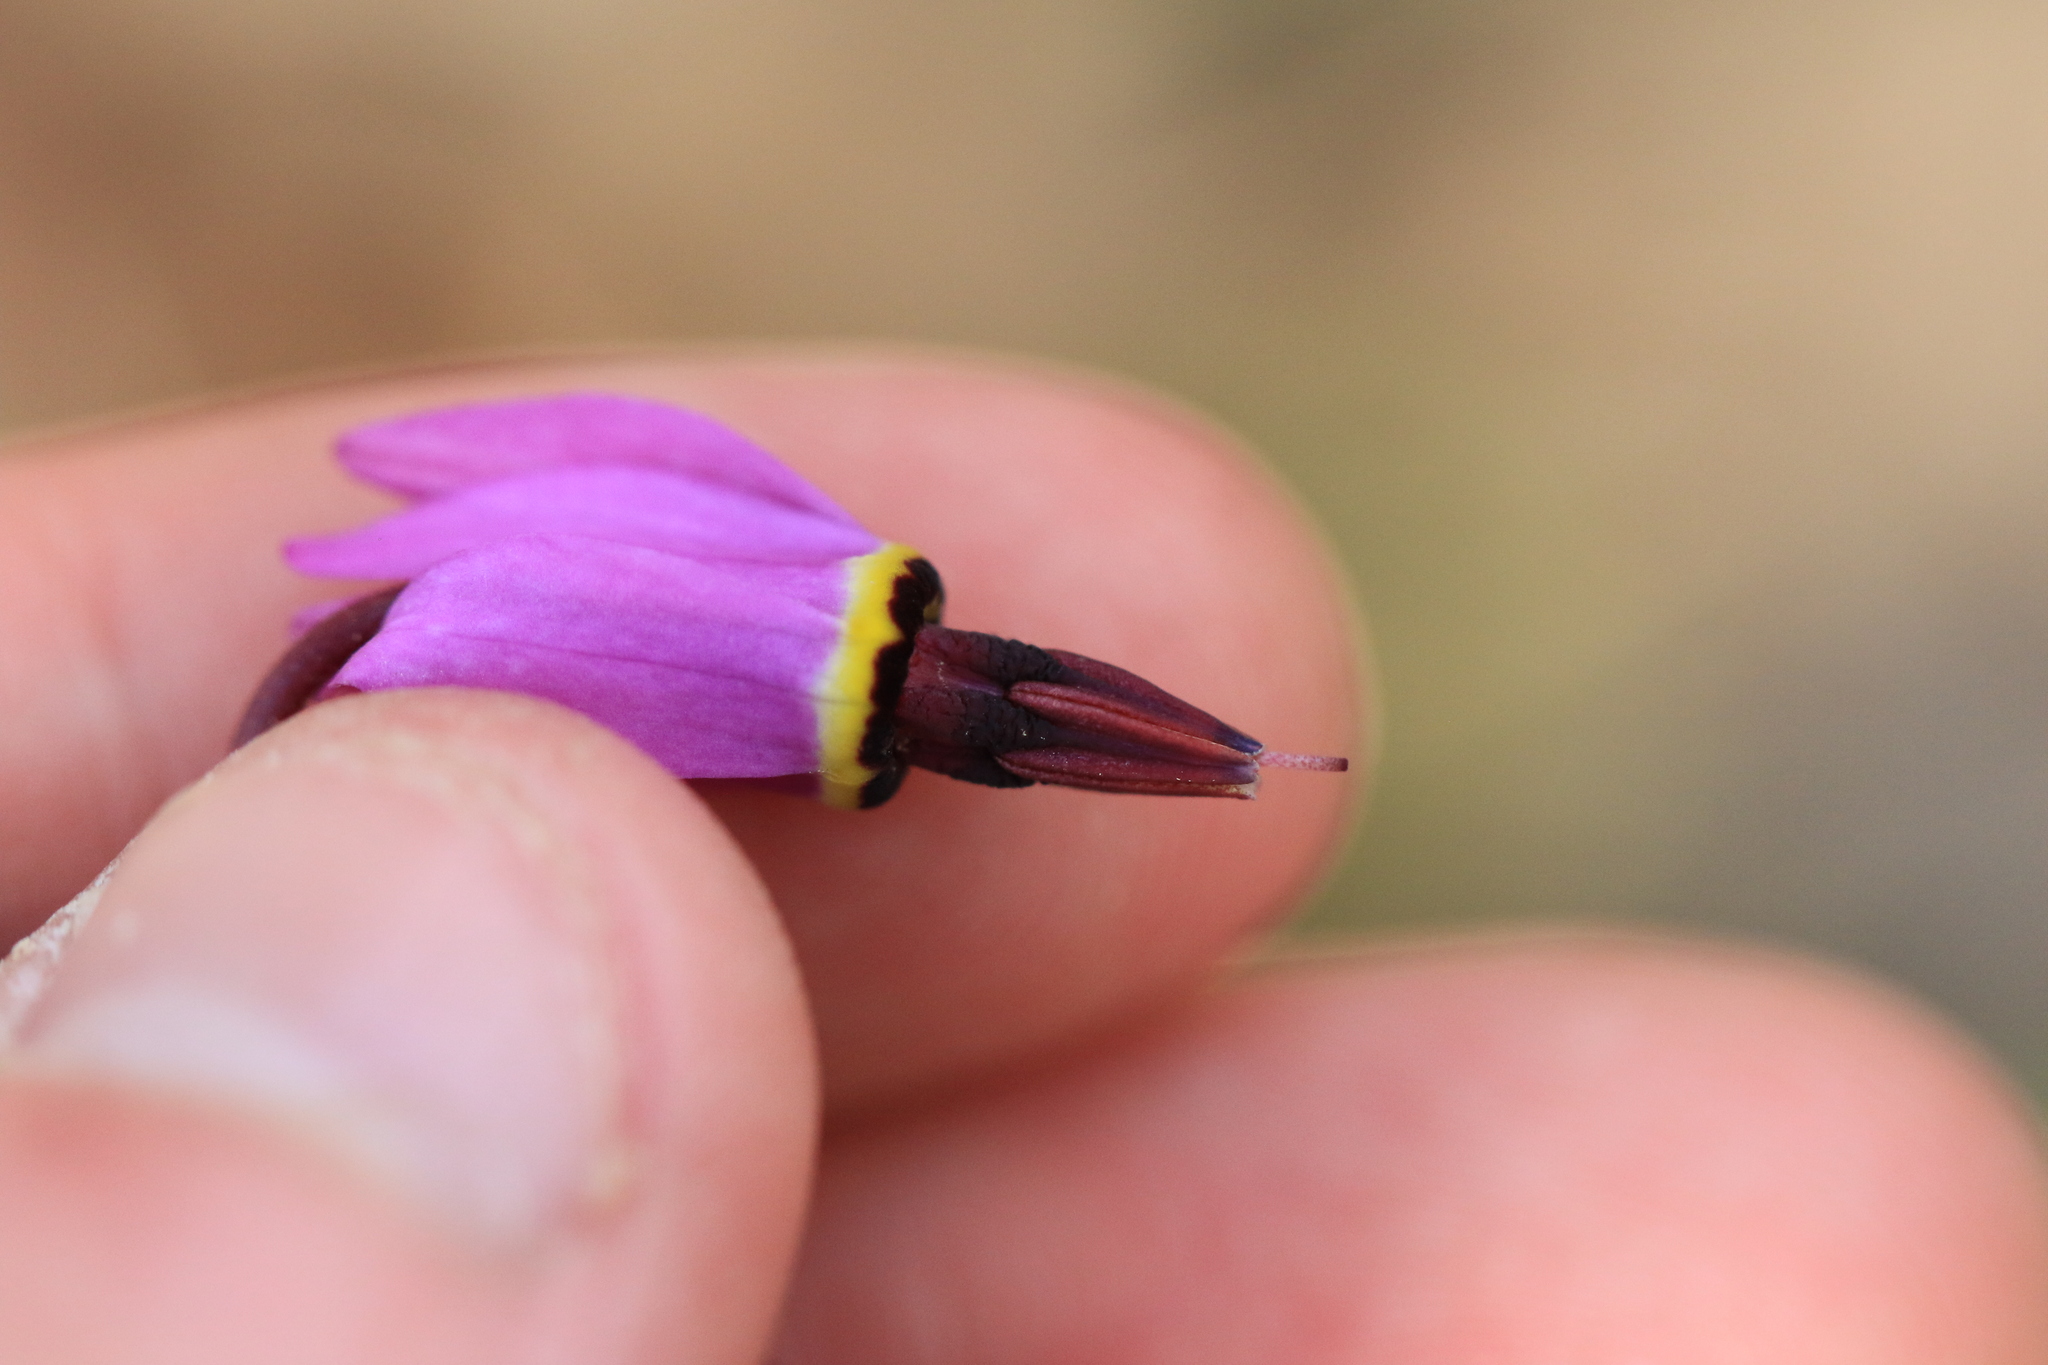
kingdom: Plantae
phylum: Tracheophyta
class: Magnoliopsida
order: Ericales
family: Primulaceae
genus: Dodecatheon
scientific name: Dodecatheon hendersonii
